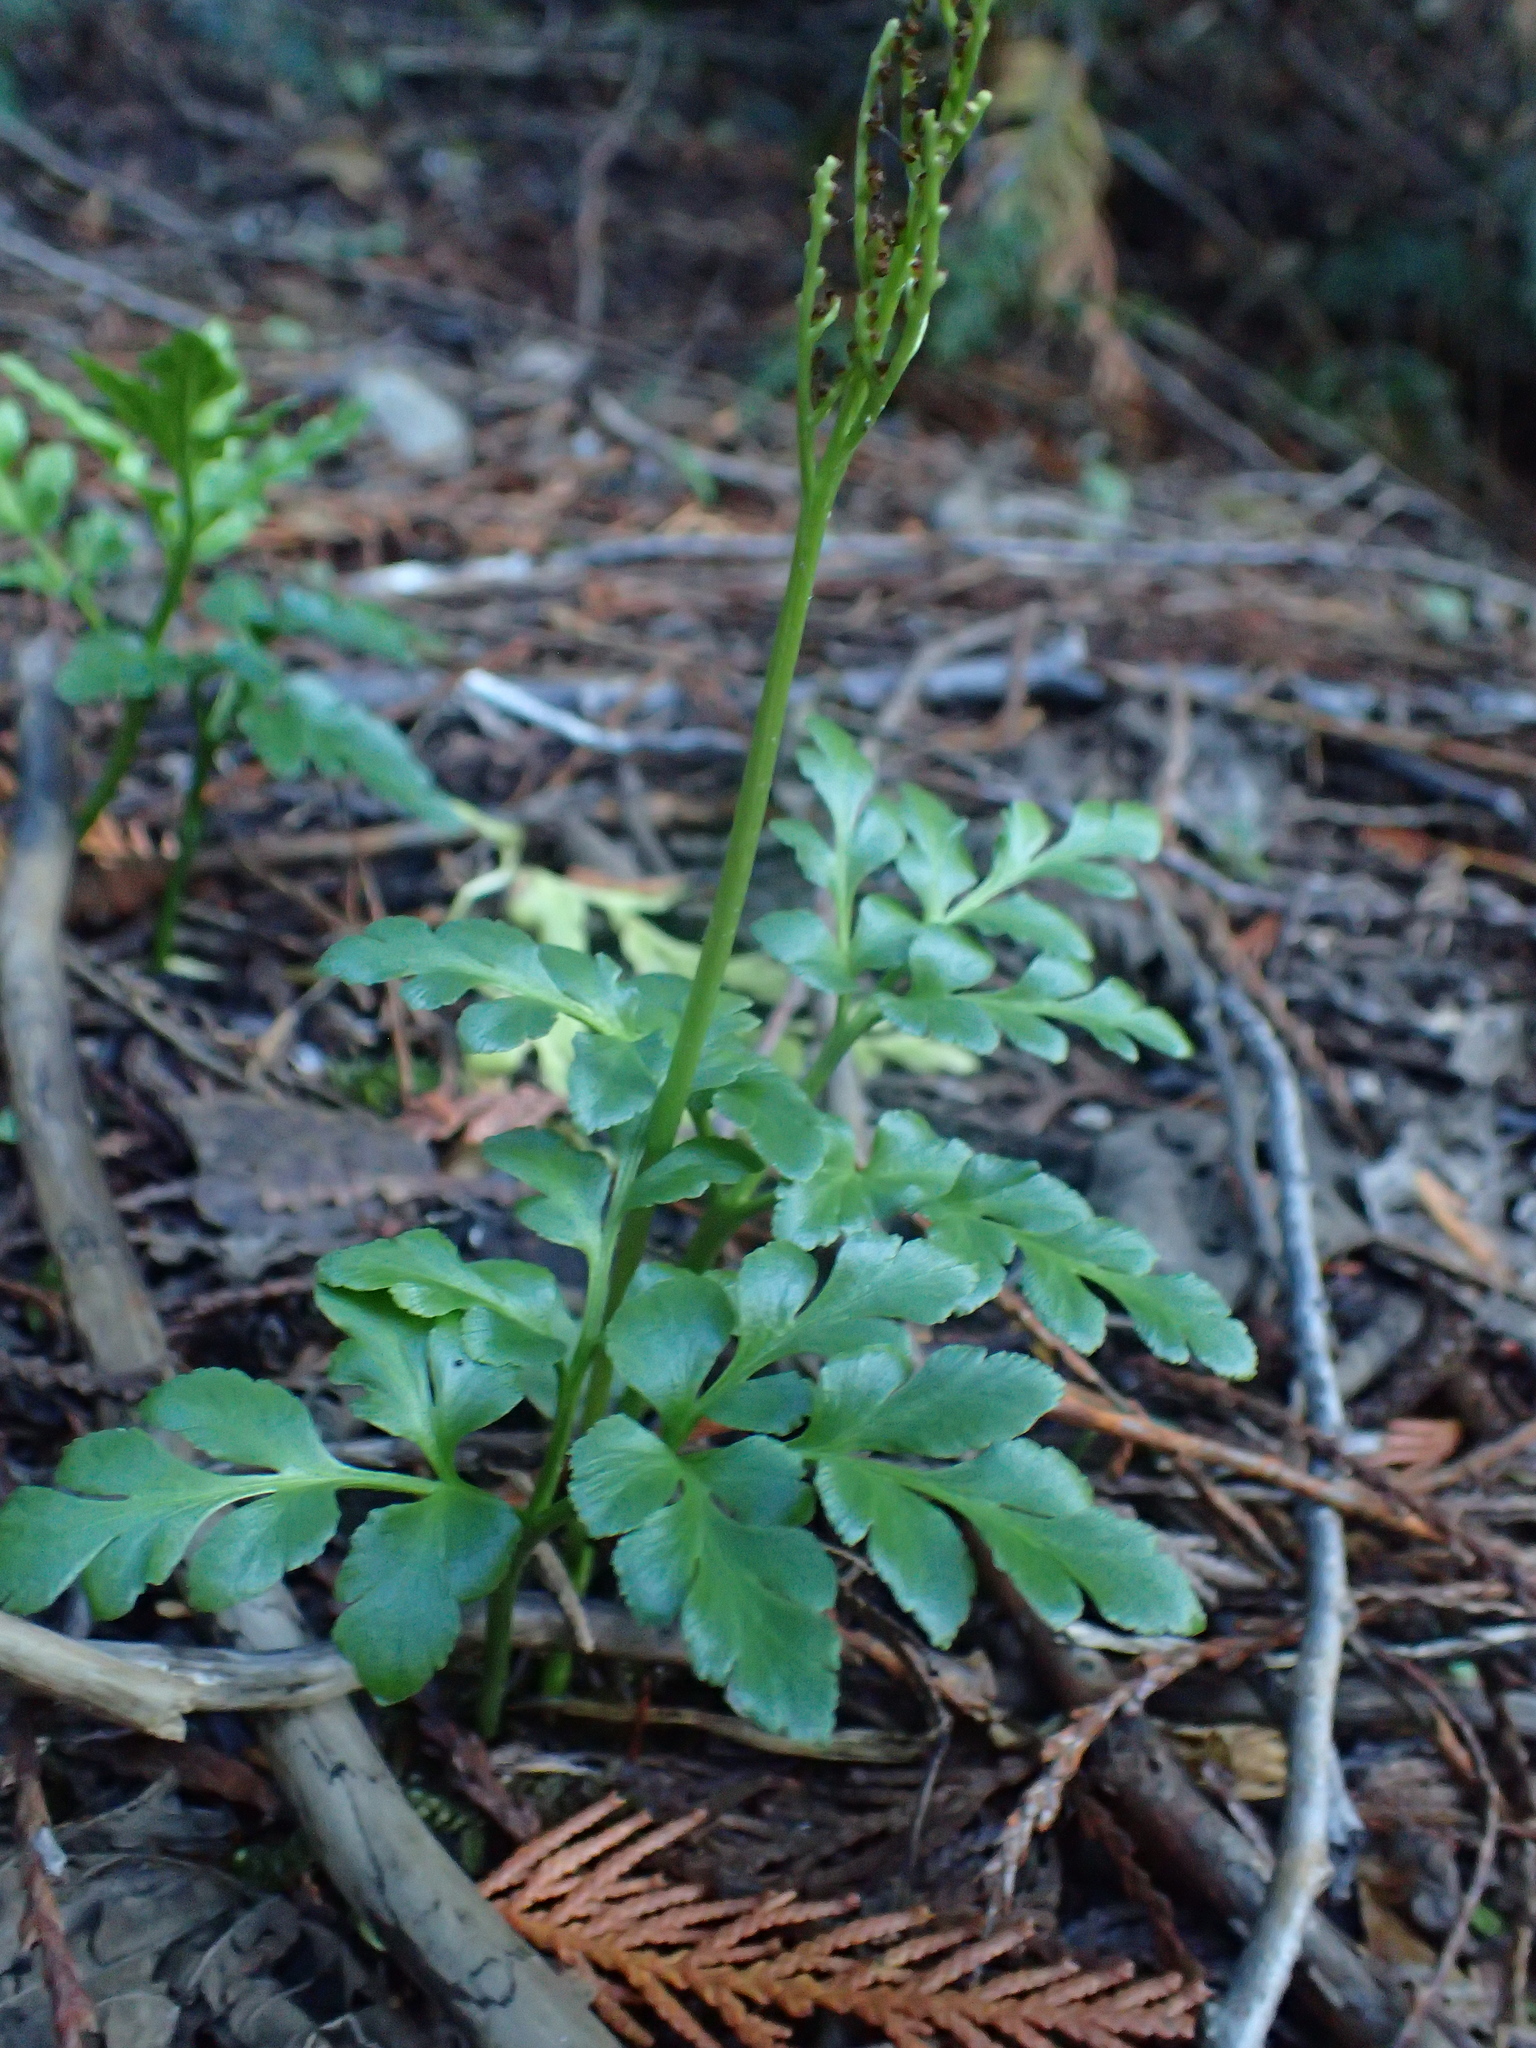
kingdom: Plantae
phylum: Tracheophyta
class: Polypodiopsida
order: Ophioglossales
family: Ophioglossaceae
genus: Sceptridium
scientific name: Sceptridium multifidum
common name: Leathery grape fern
